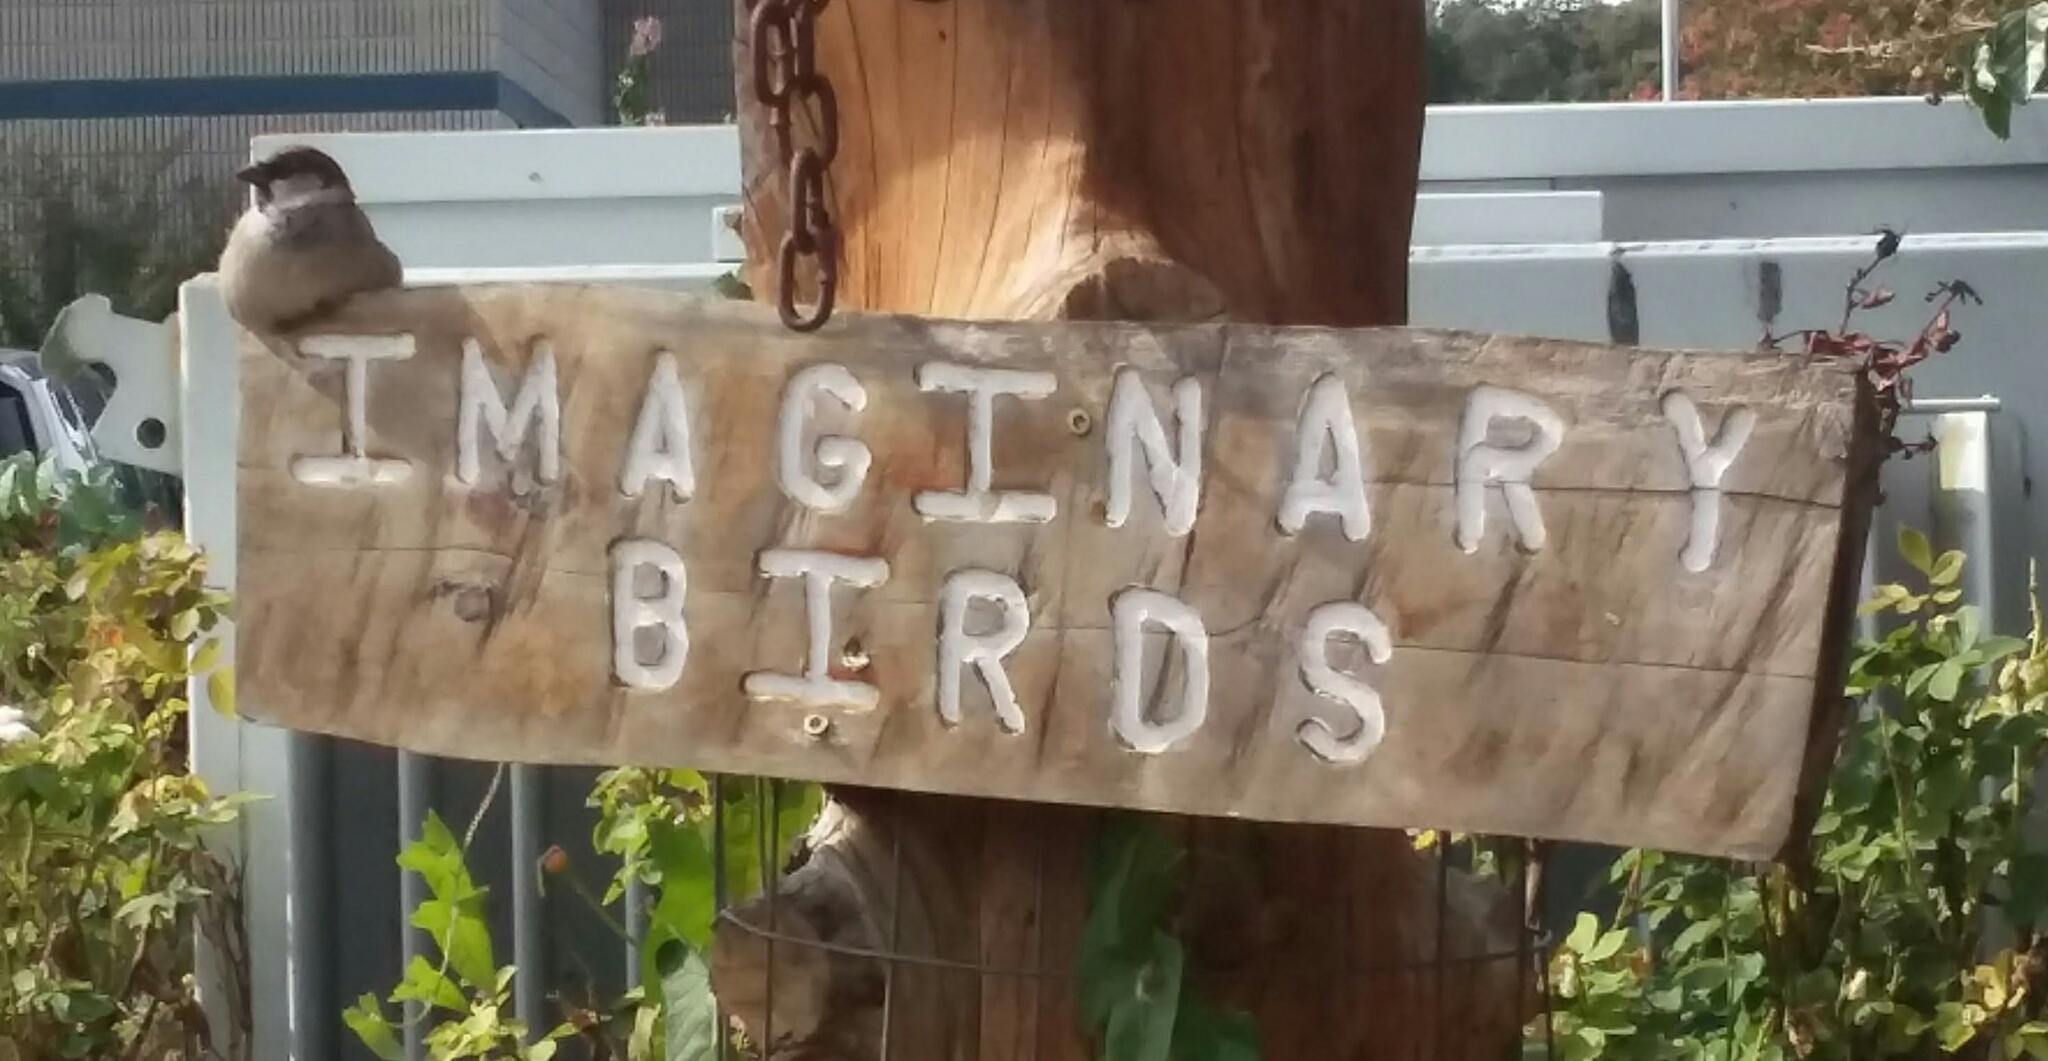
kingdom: Animalia
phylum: Chordata
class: Aves
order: Passeriformes
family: Passeridae
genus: Passer
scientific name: Passer domesticus
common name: House sparrow
